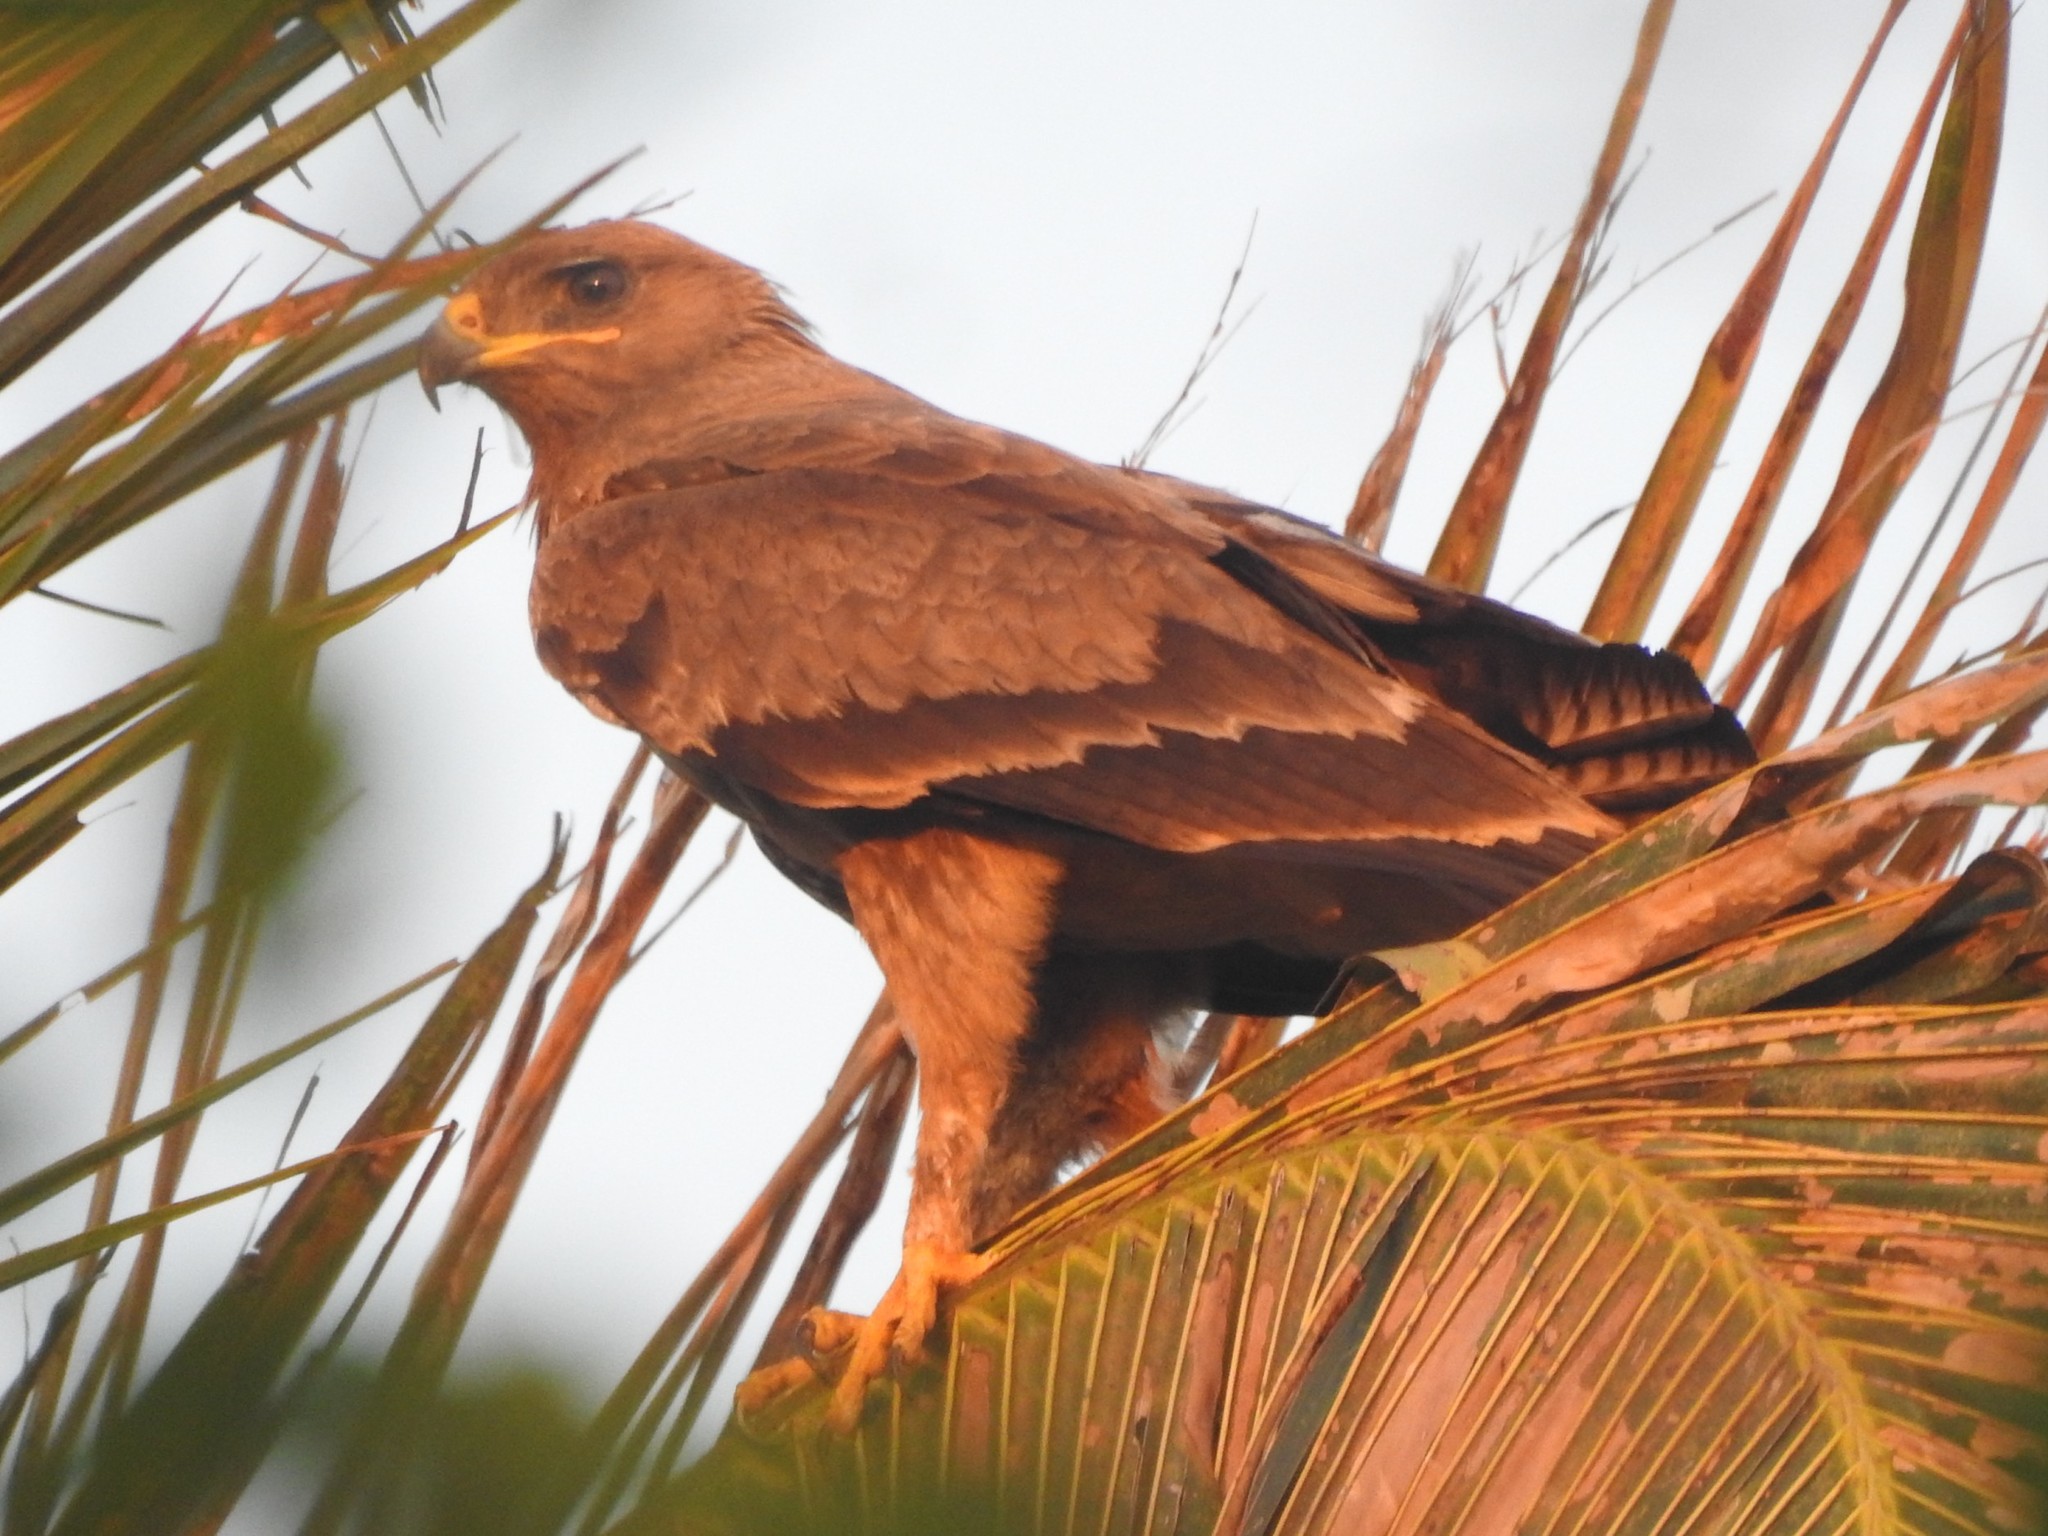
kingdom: Animalia
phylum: Chordata
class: Aves
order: Accipitriformes
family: Accipitridae
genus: Aquila
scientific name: Aquila hastata
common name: Indian spotted eagle
